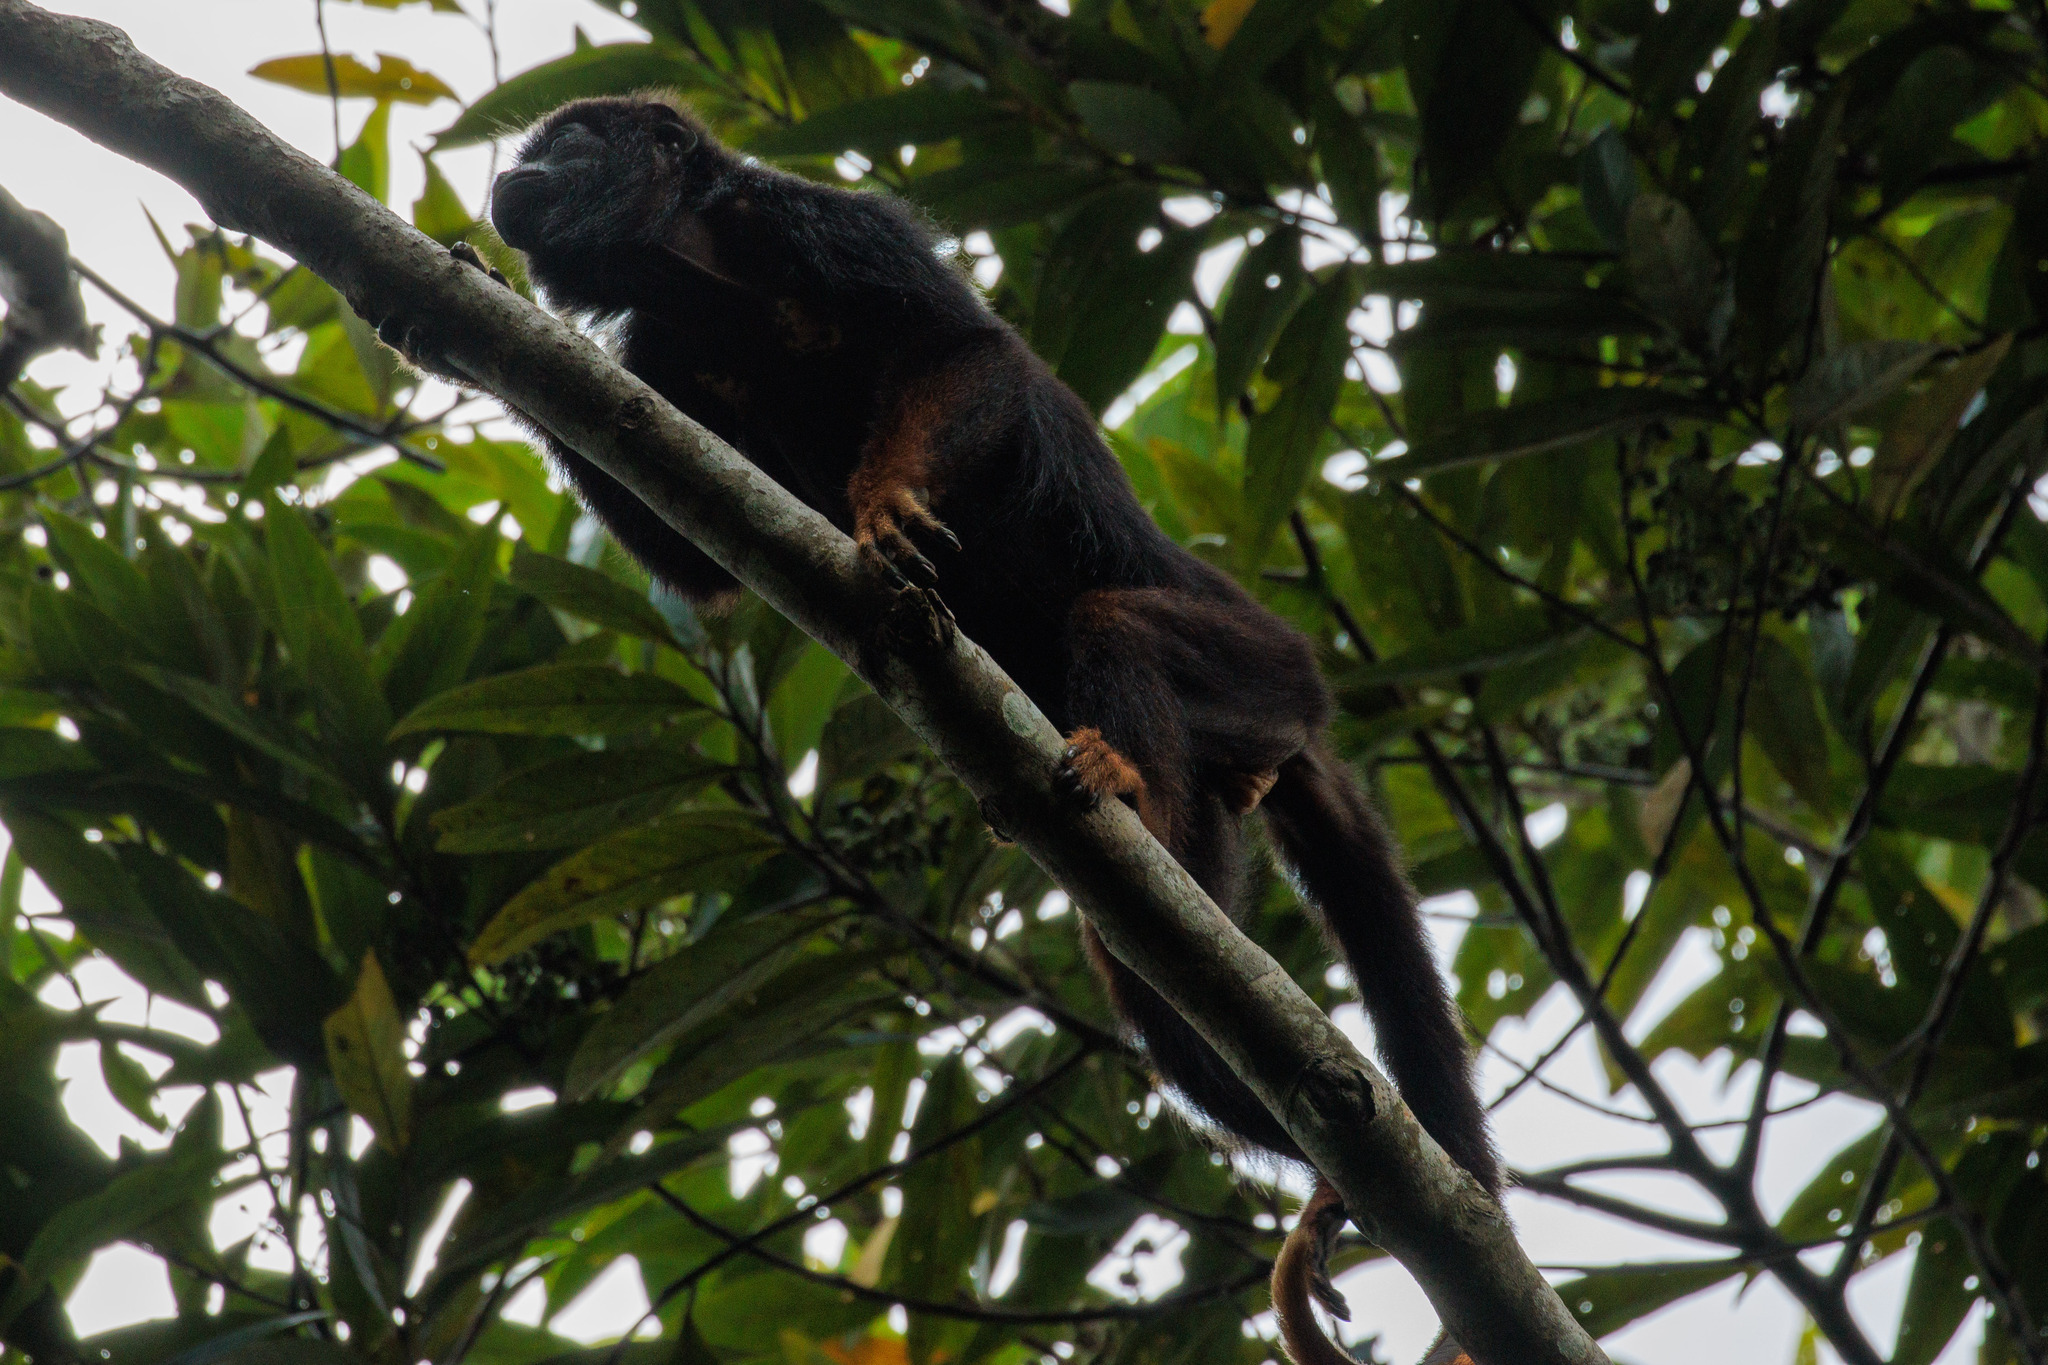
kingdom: Animalia
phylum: Chordata
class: Mammalia
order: Primates
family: Atelidae
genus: Alouatta
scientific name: Alouatta belzebul
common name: Red-handed howler
